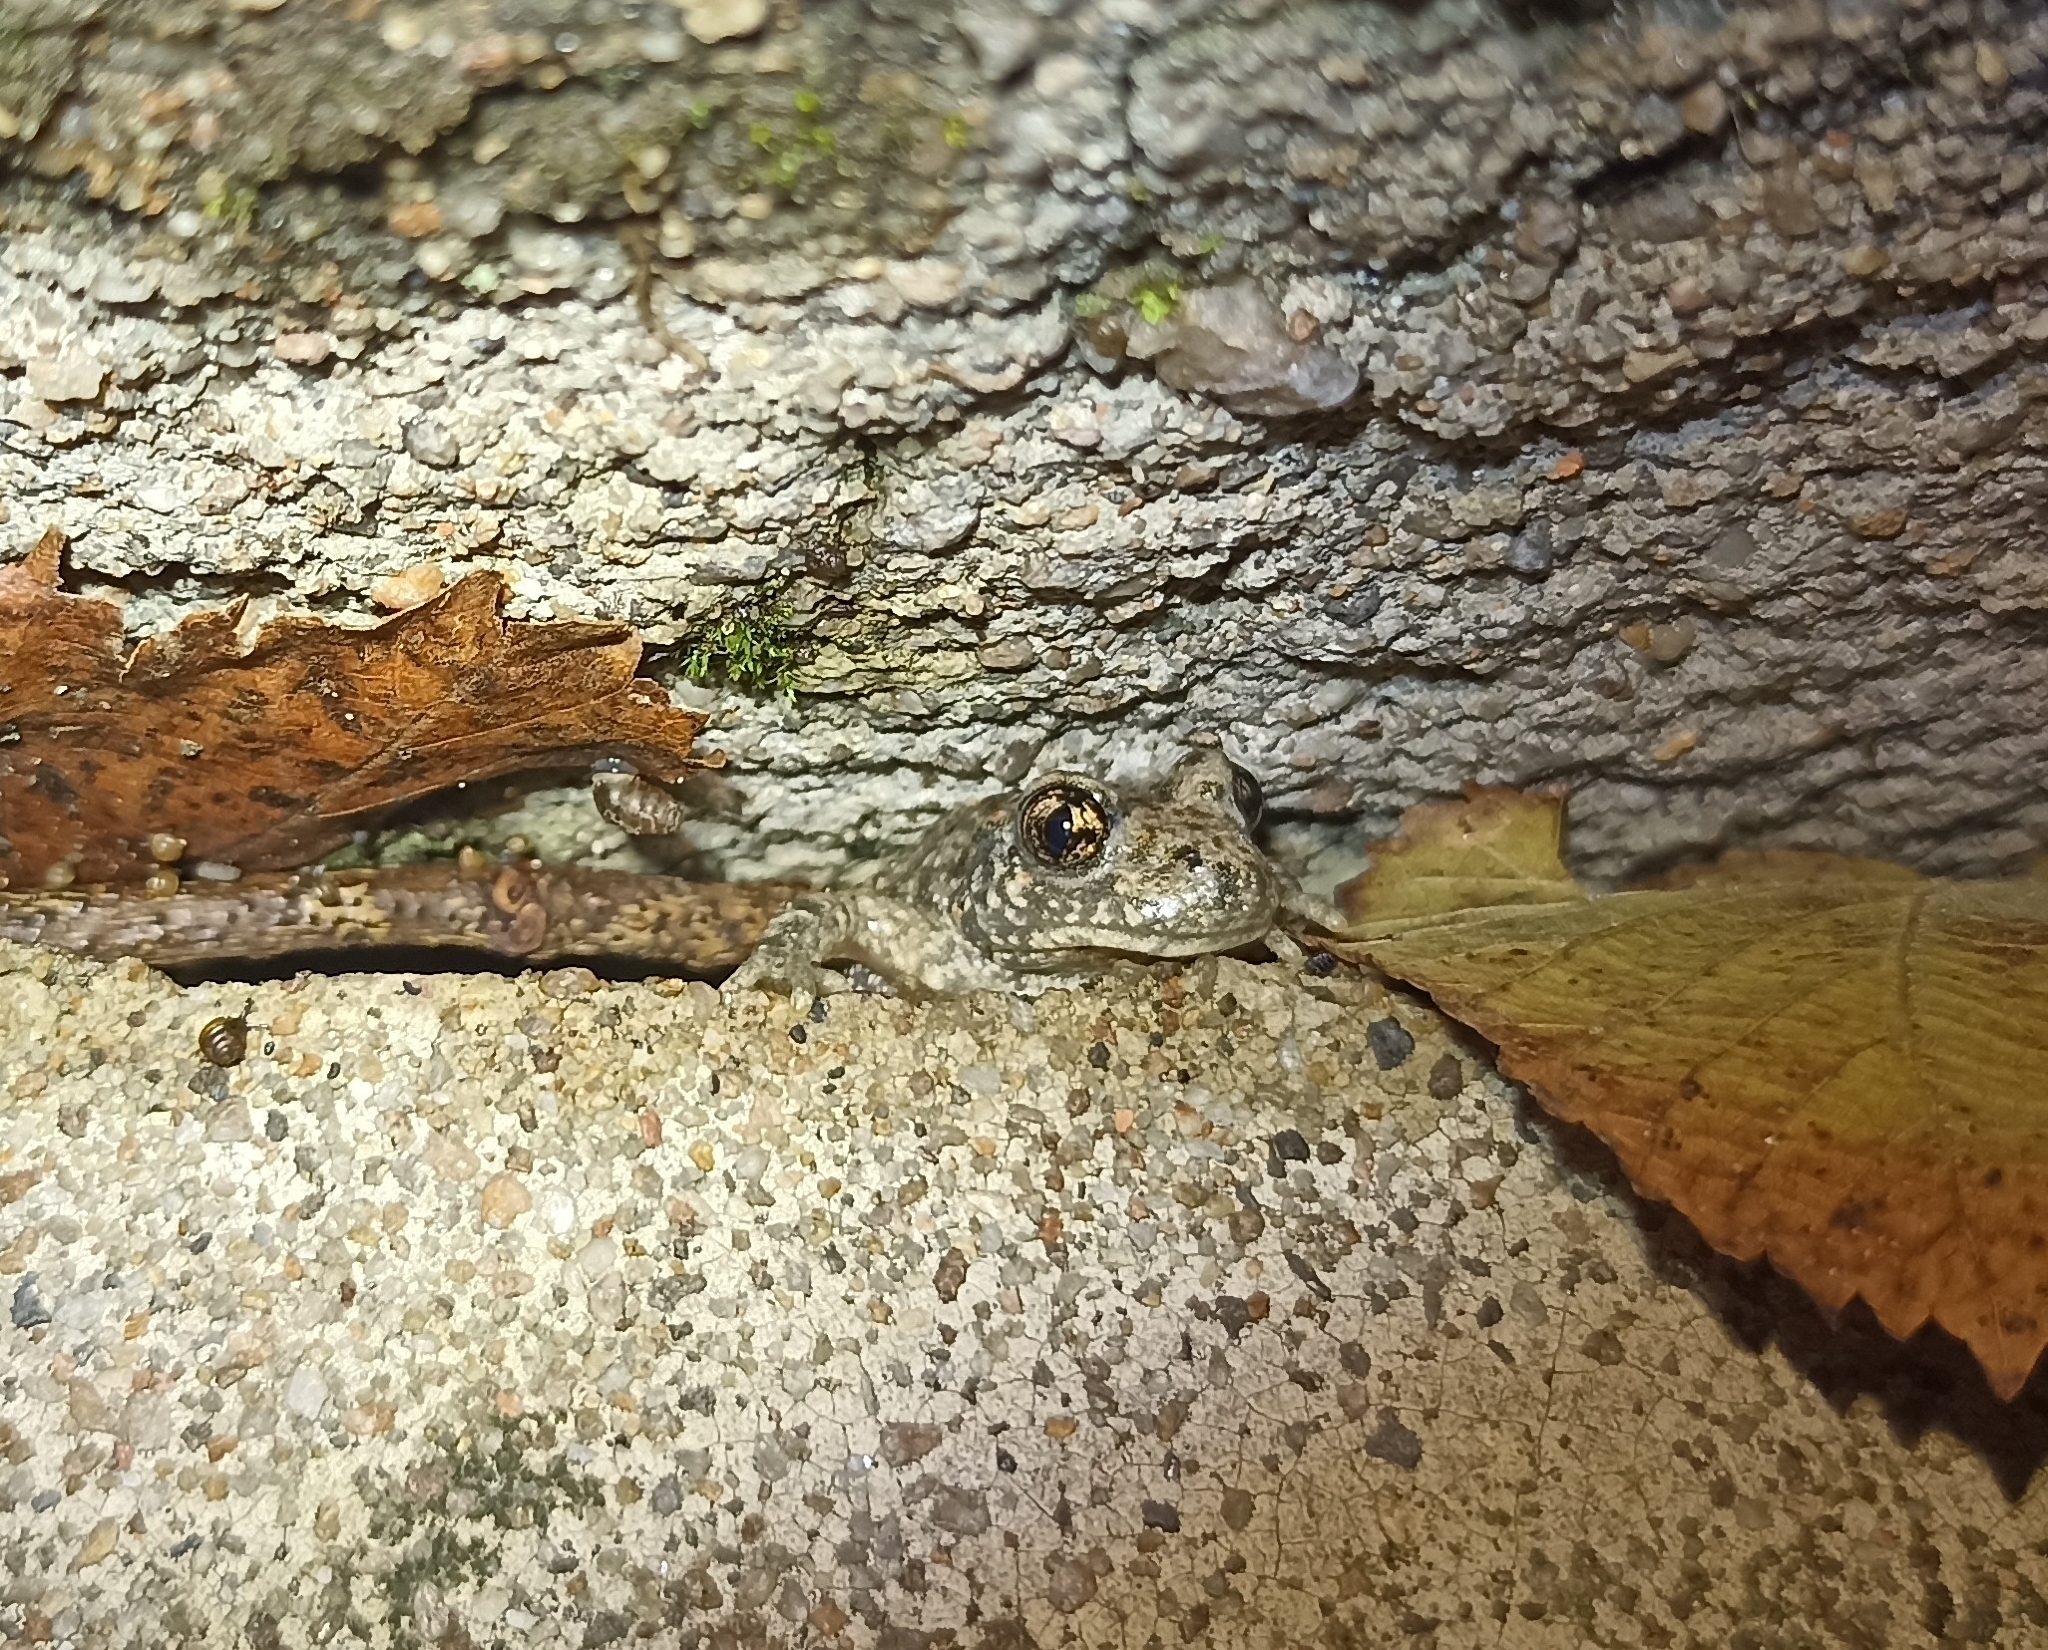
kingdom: Animalia
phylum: Chordata
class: Amphibia
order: Anura
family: Alytidae
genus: Alytes
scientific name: Alytes obstetricans
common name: Midwife toad
